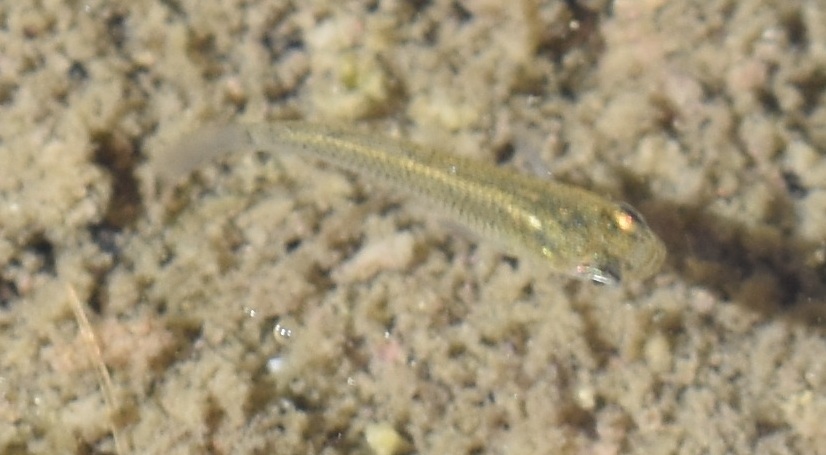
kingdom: Animalia
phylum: Chordata
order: Cyprinodontiformes
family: Poeciliidae
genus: Gambusia
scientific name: Gambusia affinis
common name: Mosquitofish
